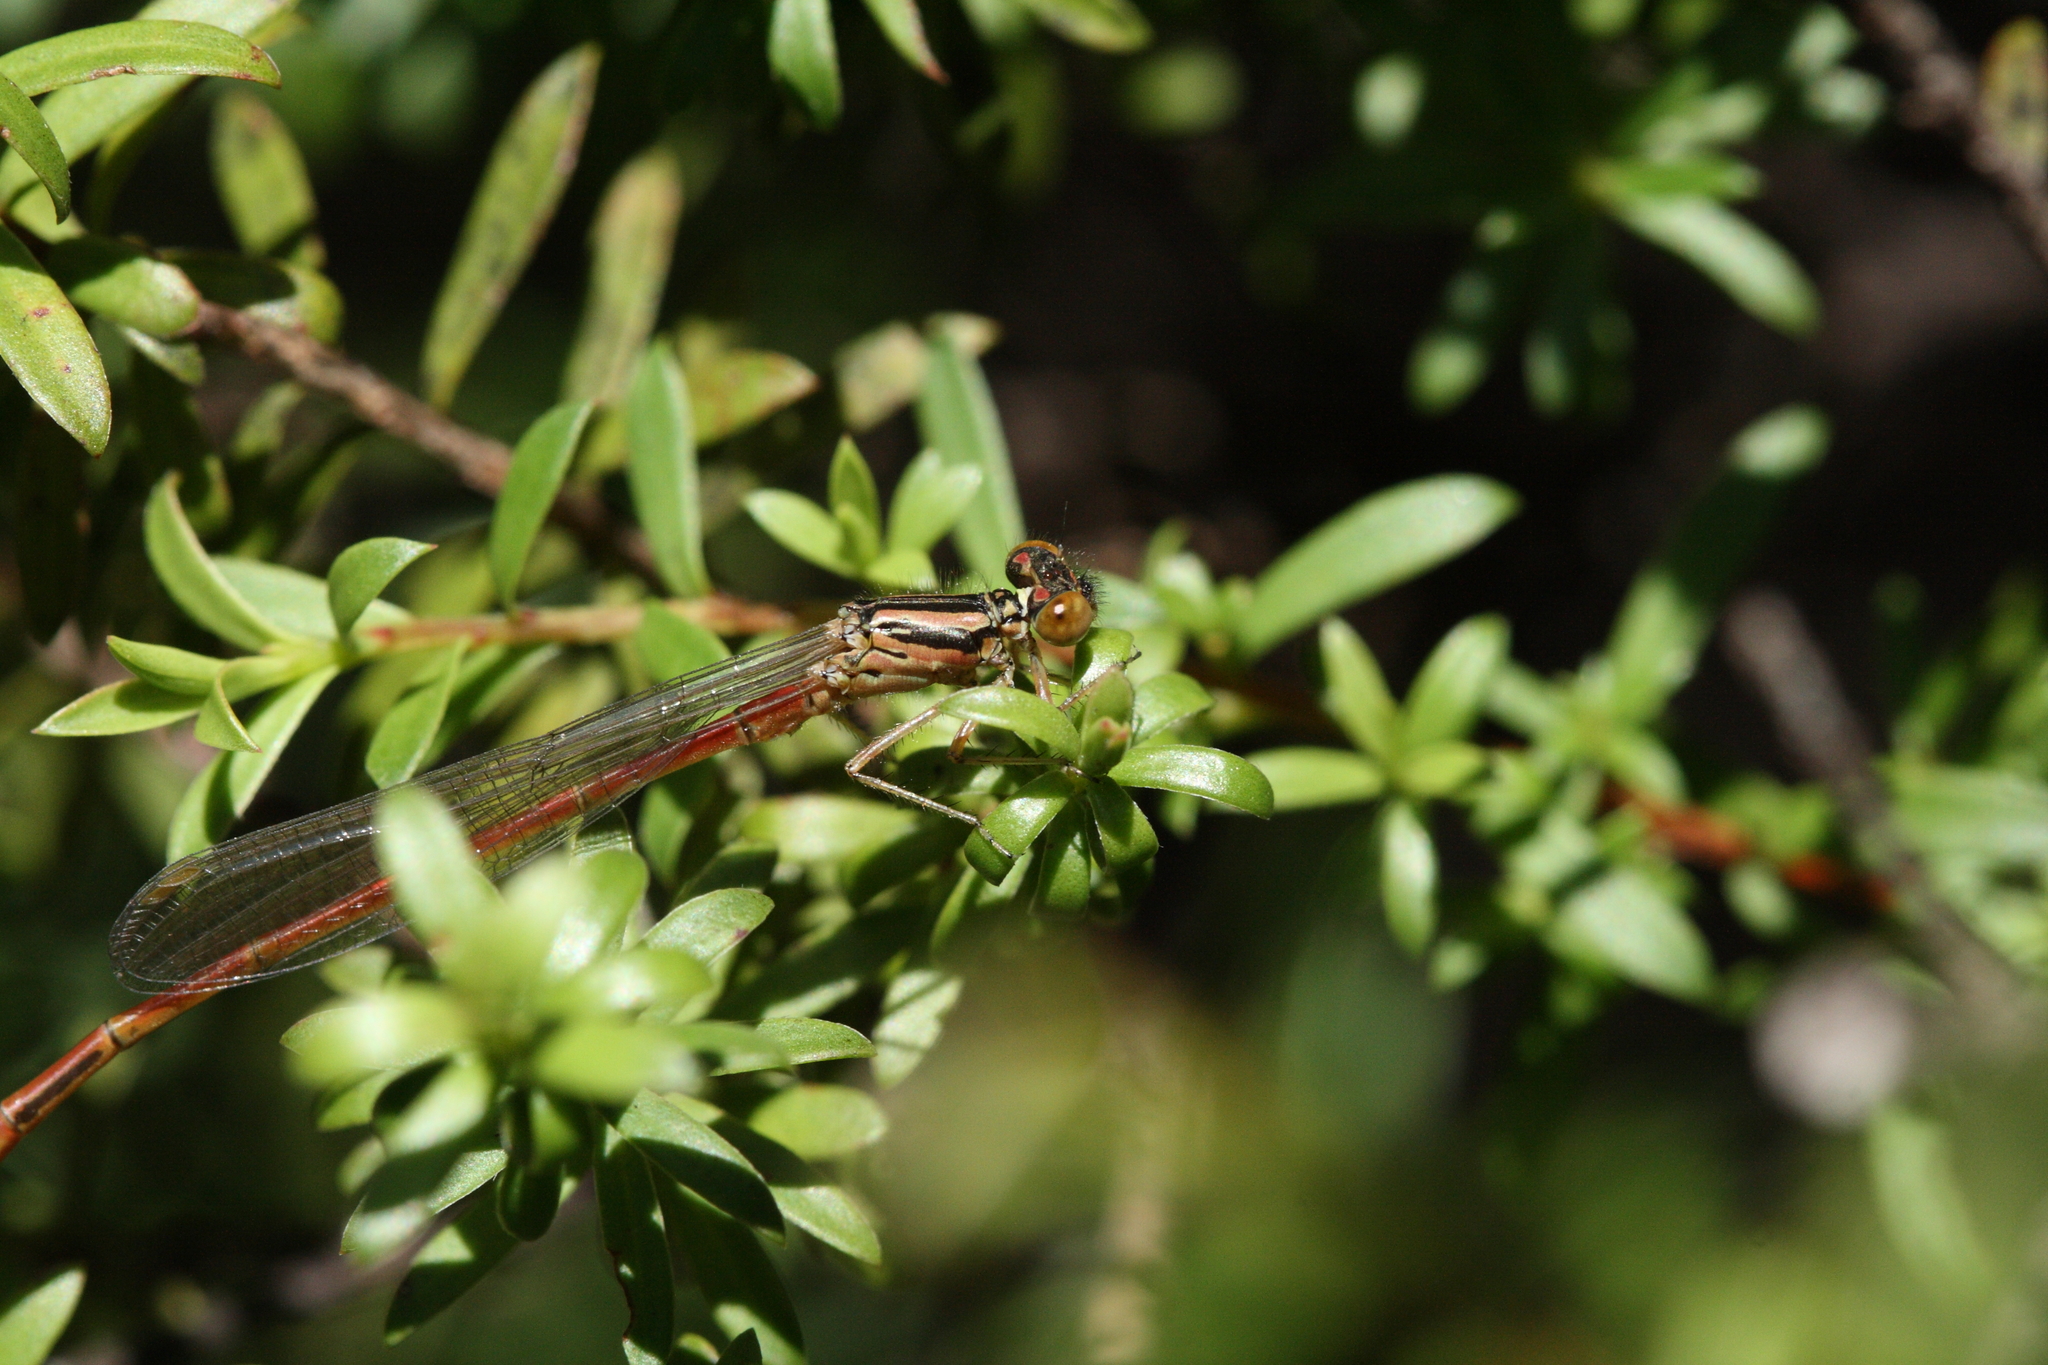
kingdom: Animalia
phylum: Arthropoda
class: Insecta
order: Odonata
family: Coenagrionidae
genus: Xanthocnemis
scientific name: Xanthocnemis zealandica
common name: Common redcoat damselfly
